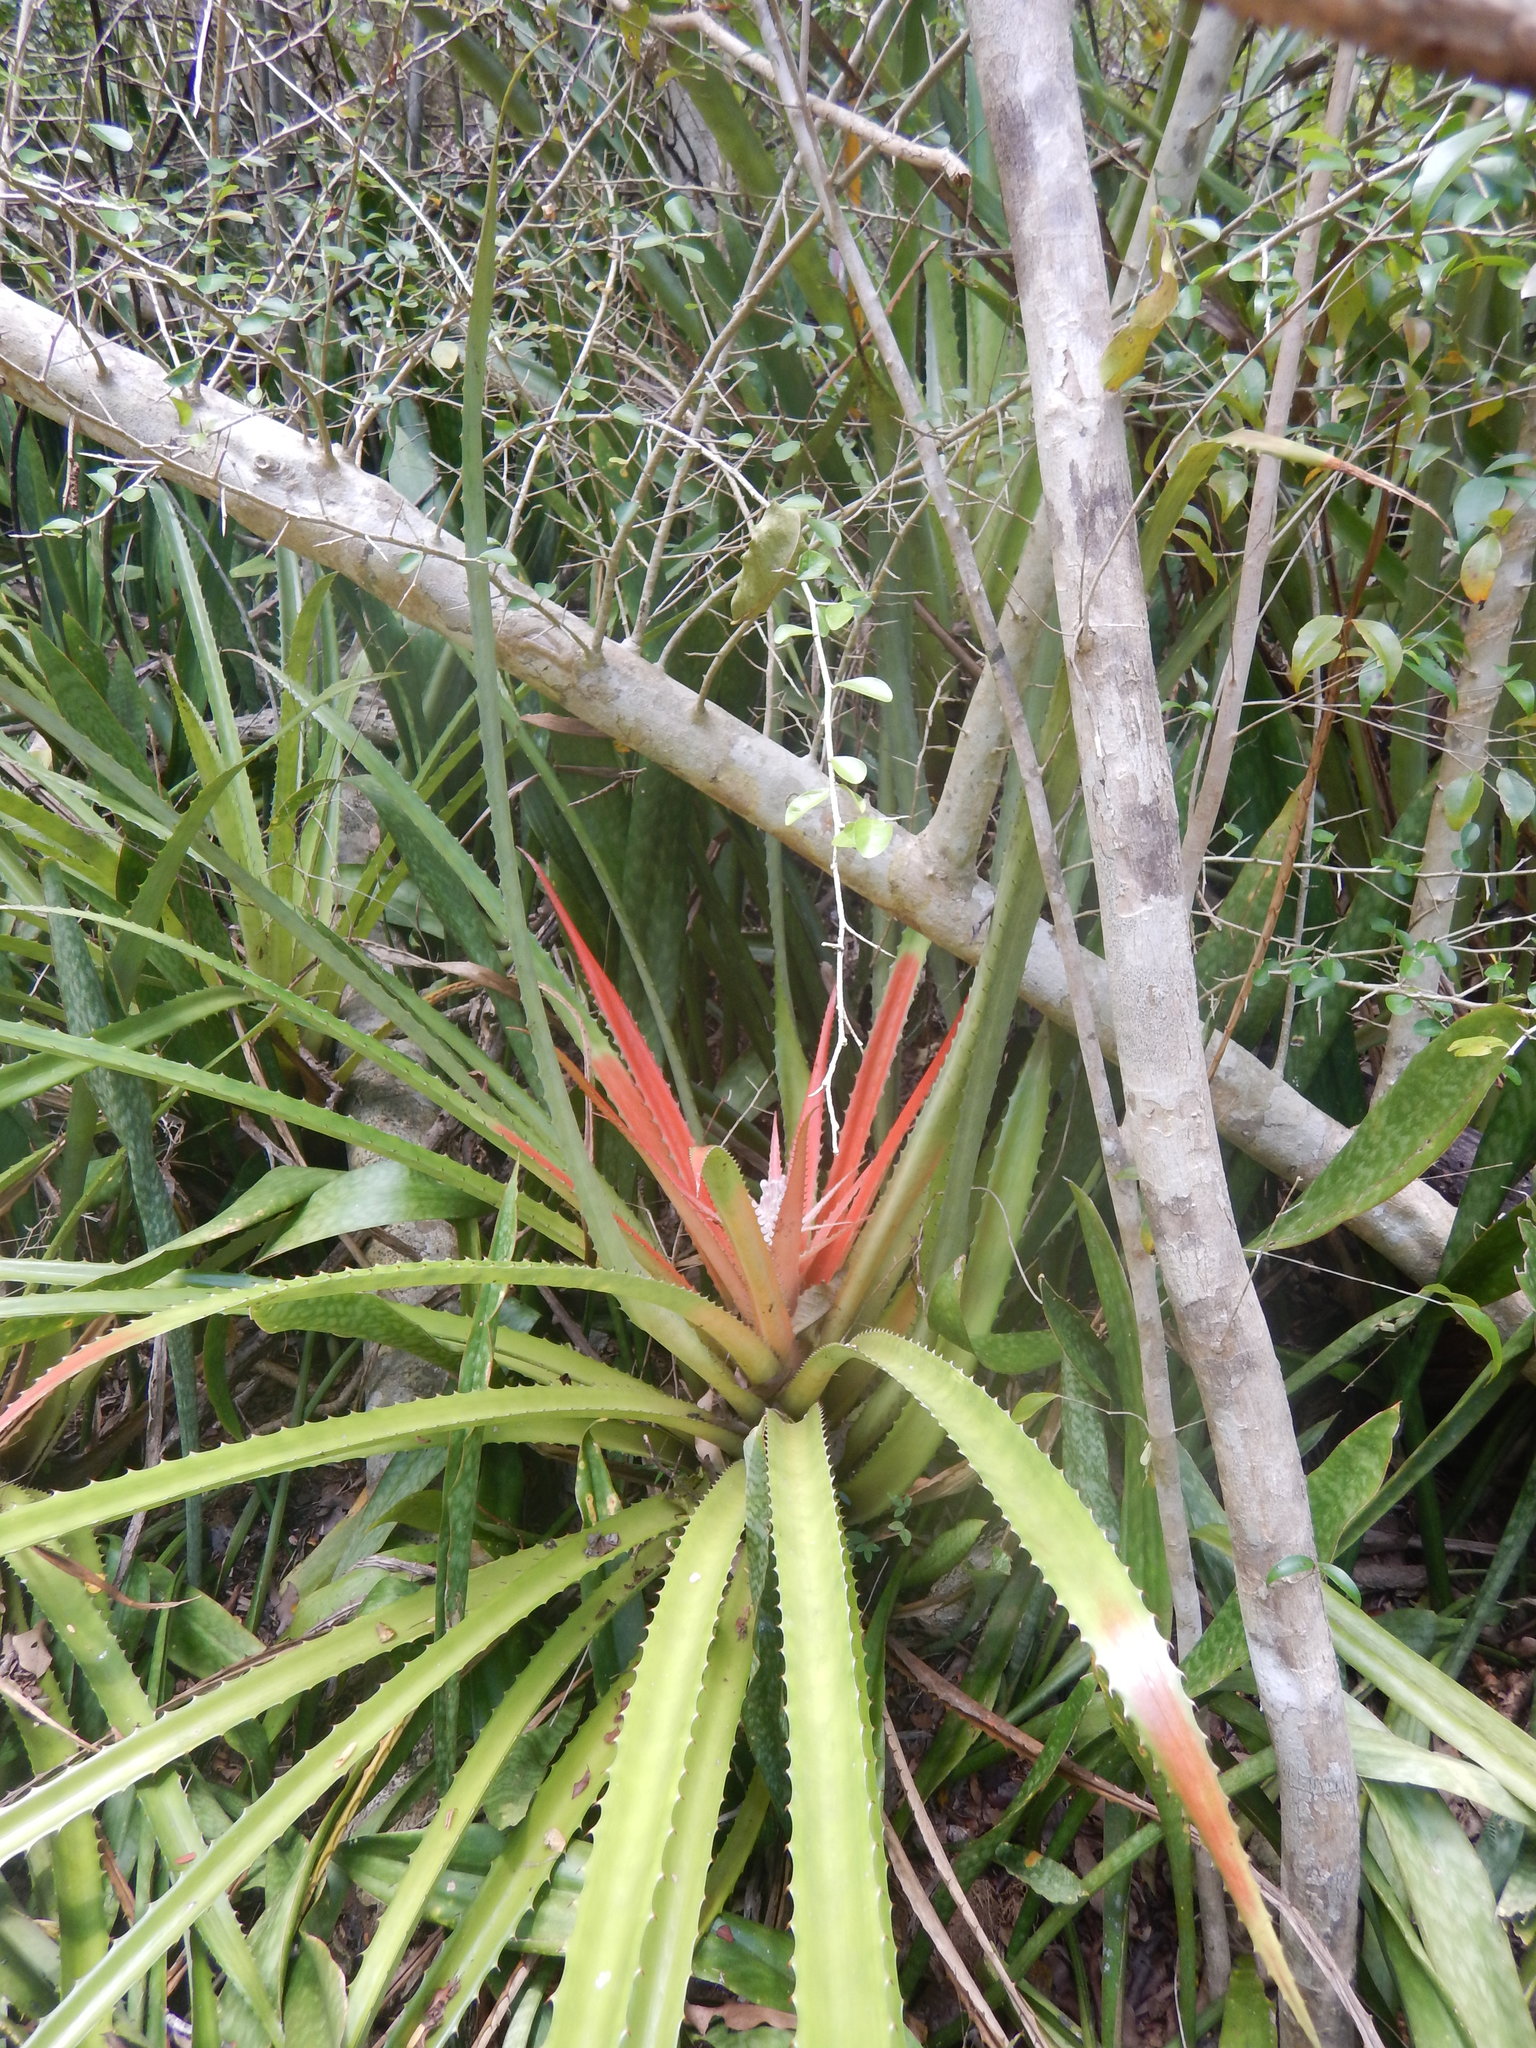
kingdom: Plantae
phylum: Tracheophyta
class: Liliopsida
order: Poales
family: Bromeliaceae
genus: Bromelia
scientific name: Bromelia pinguin
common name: Pinguin
